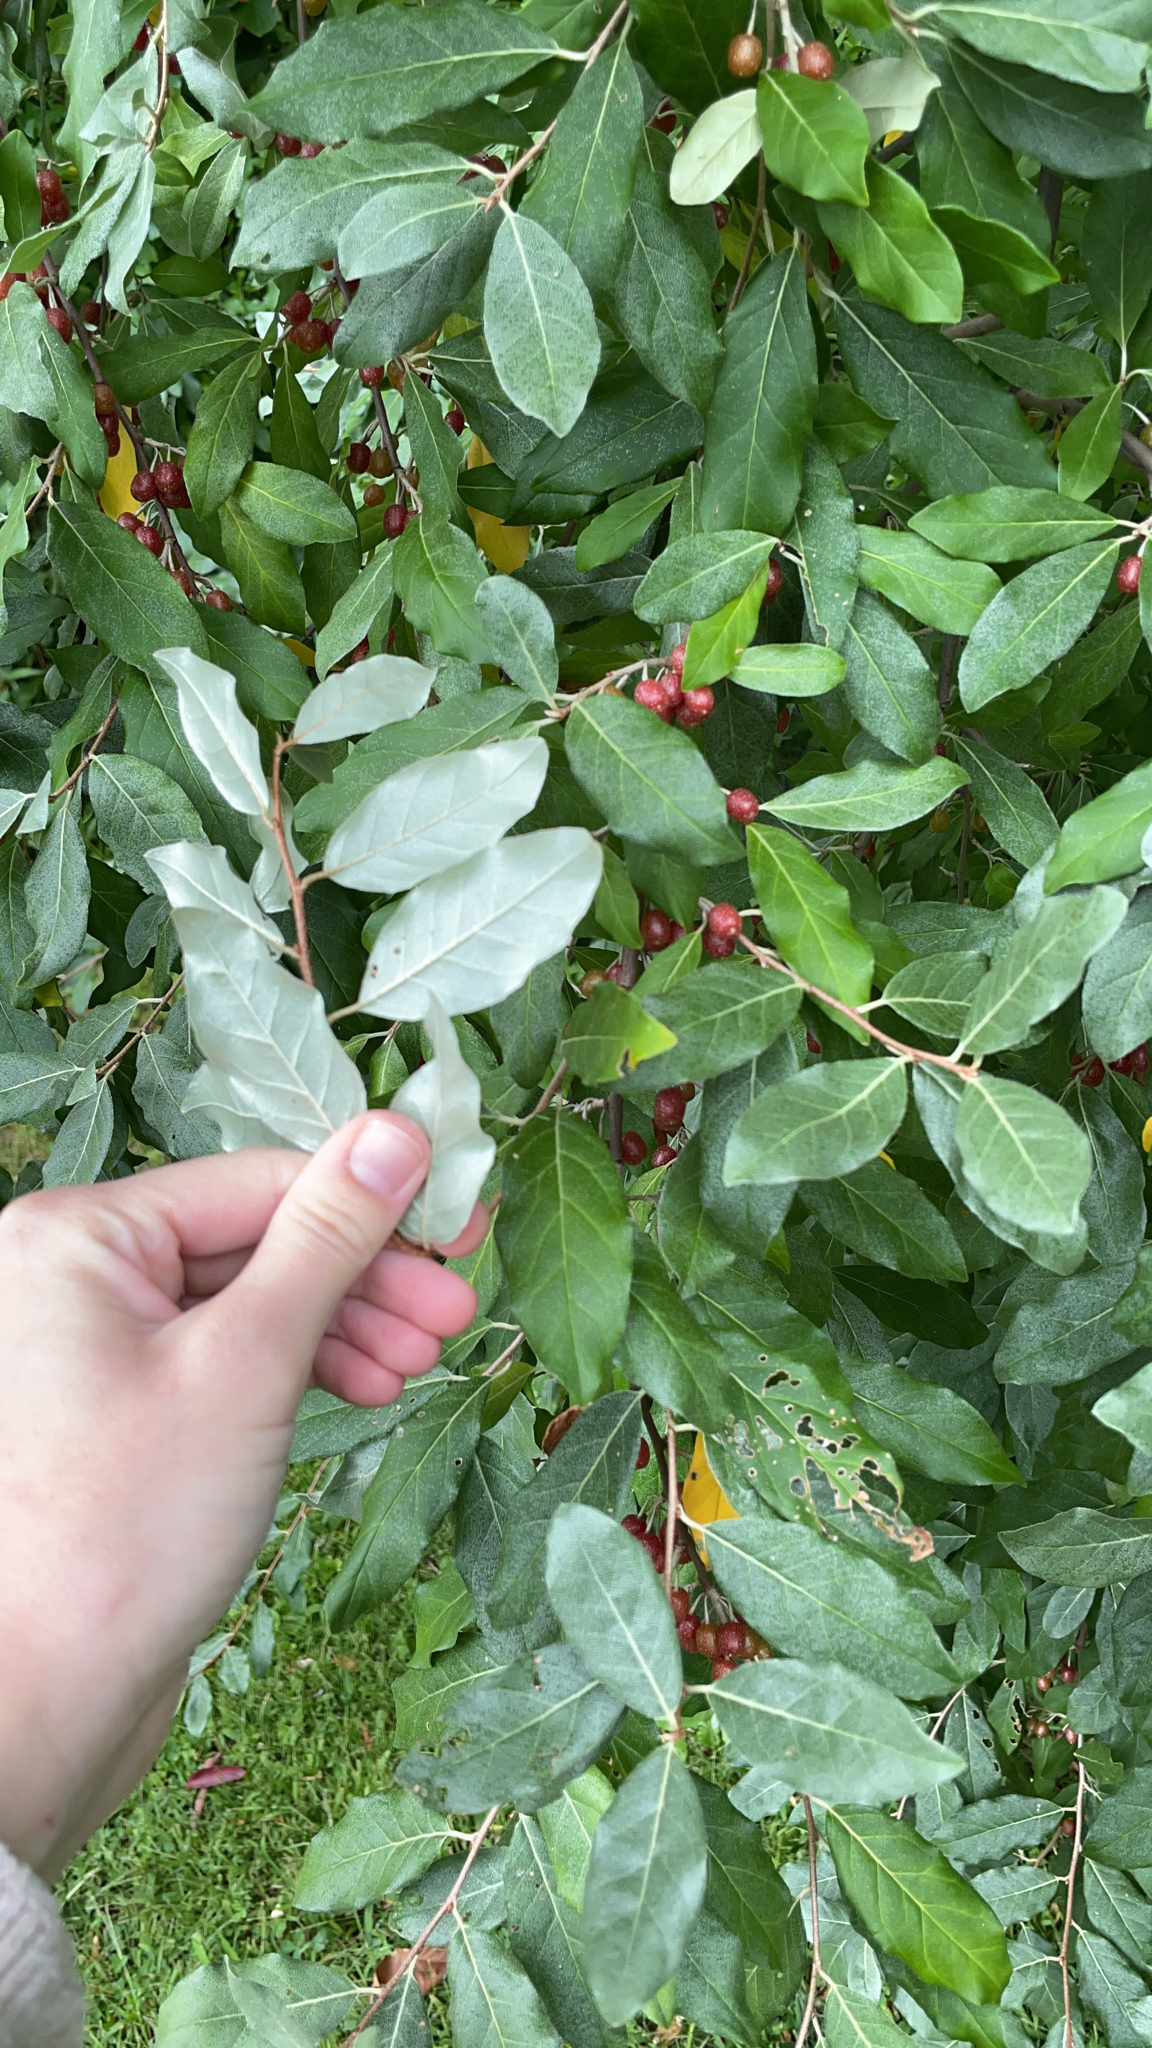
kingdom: Plantae
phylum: Tracheophyta
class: Magnoliopsida
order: Rosales
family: Elaeagnaceae
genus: Elaeagnus
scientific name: Elaeagnus umbellata
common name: Autumn olive
